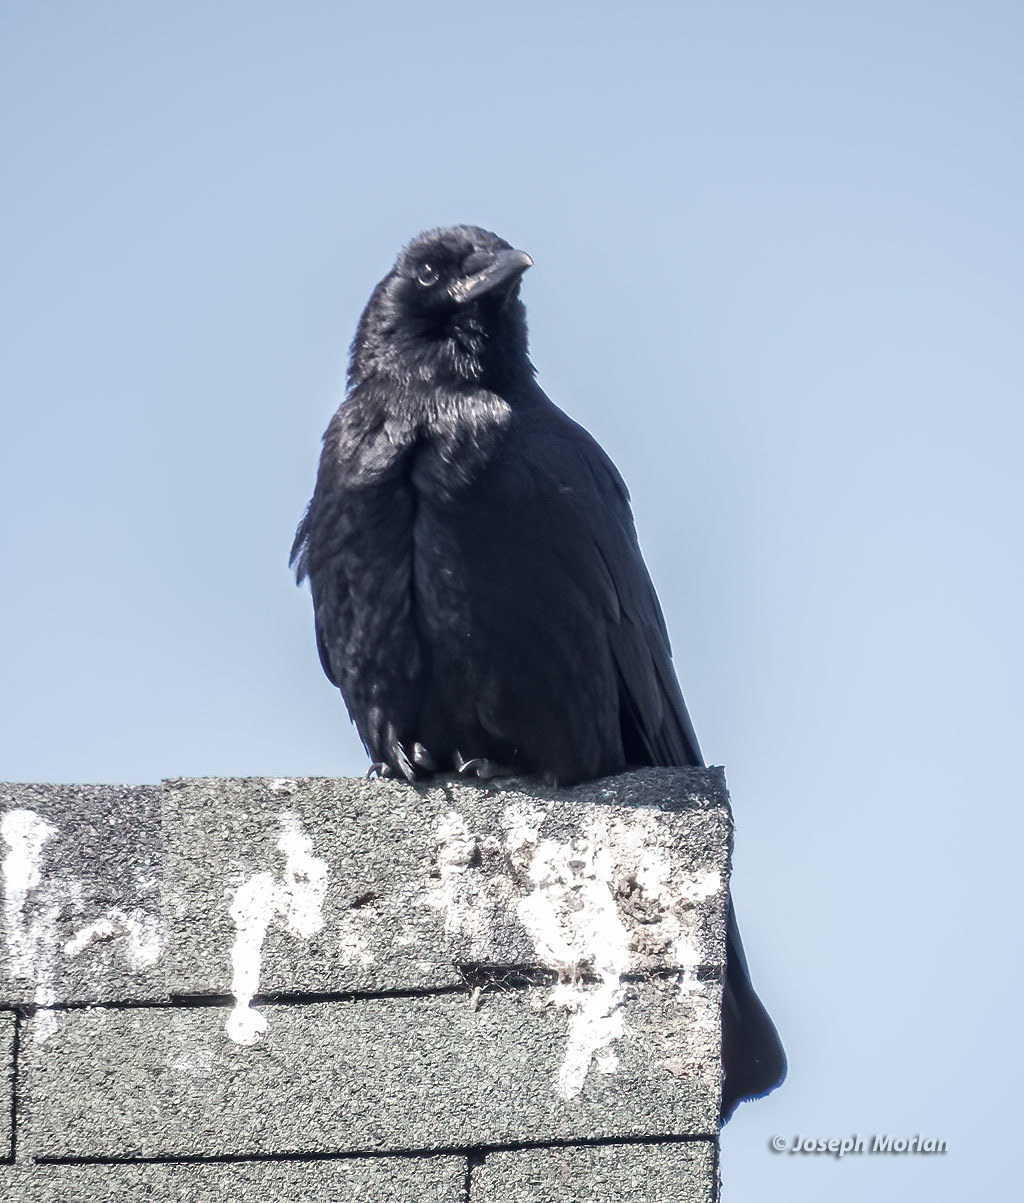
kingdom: Animalia
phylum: Chordata
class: Aves
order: Passeriformes
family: Corvidae
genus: Corvus
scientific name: Corvus brachyrhynchos
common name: American crow
